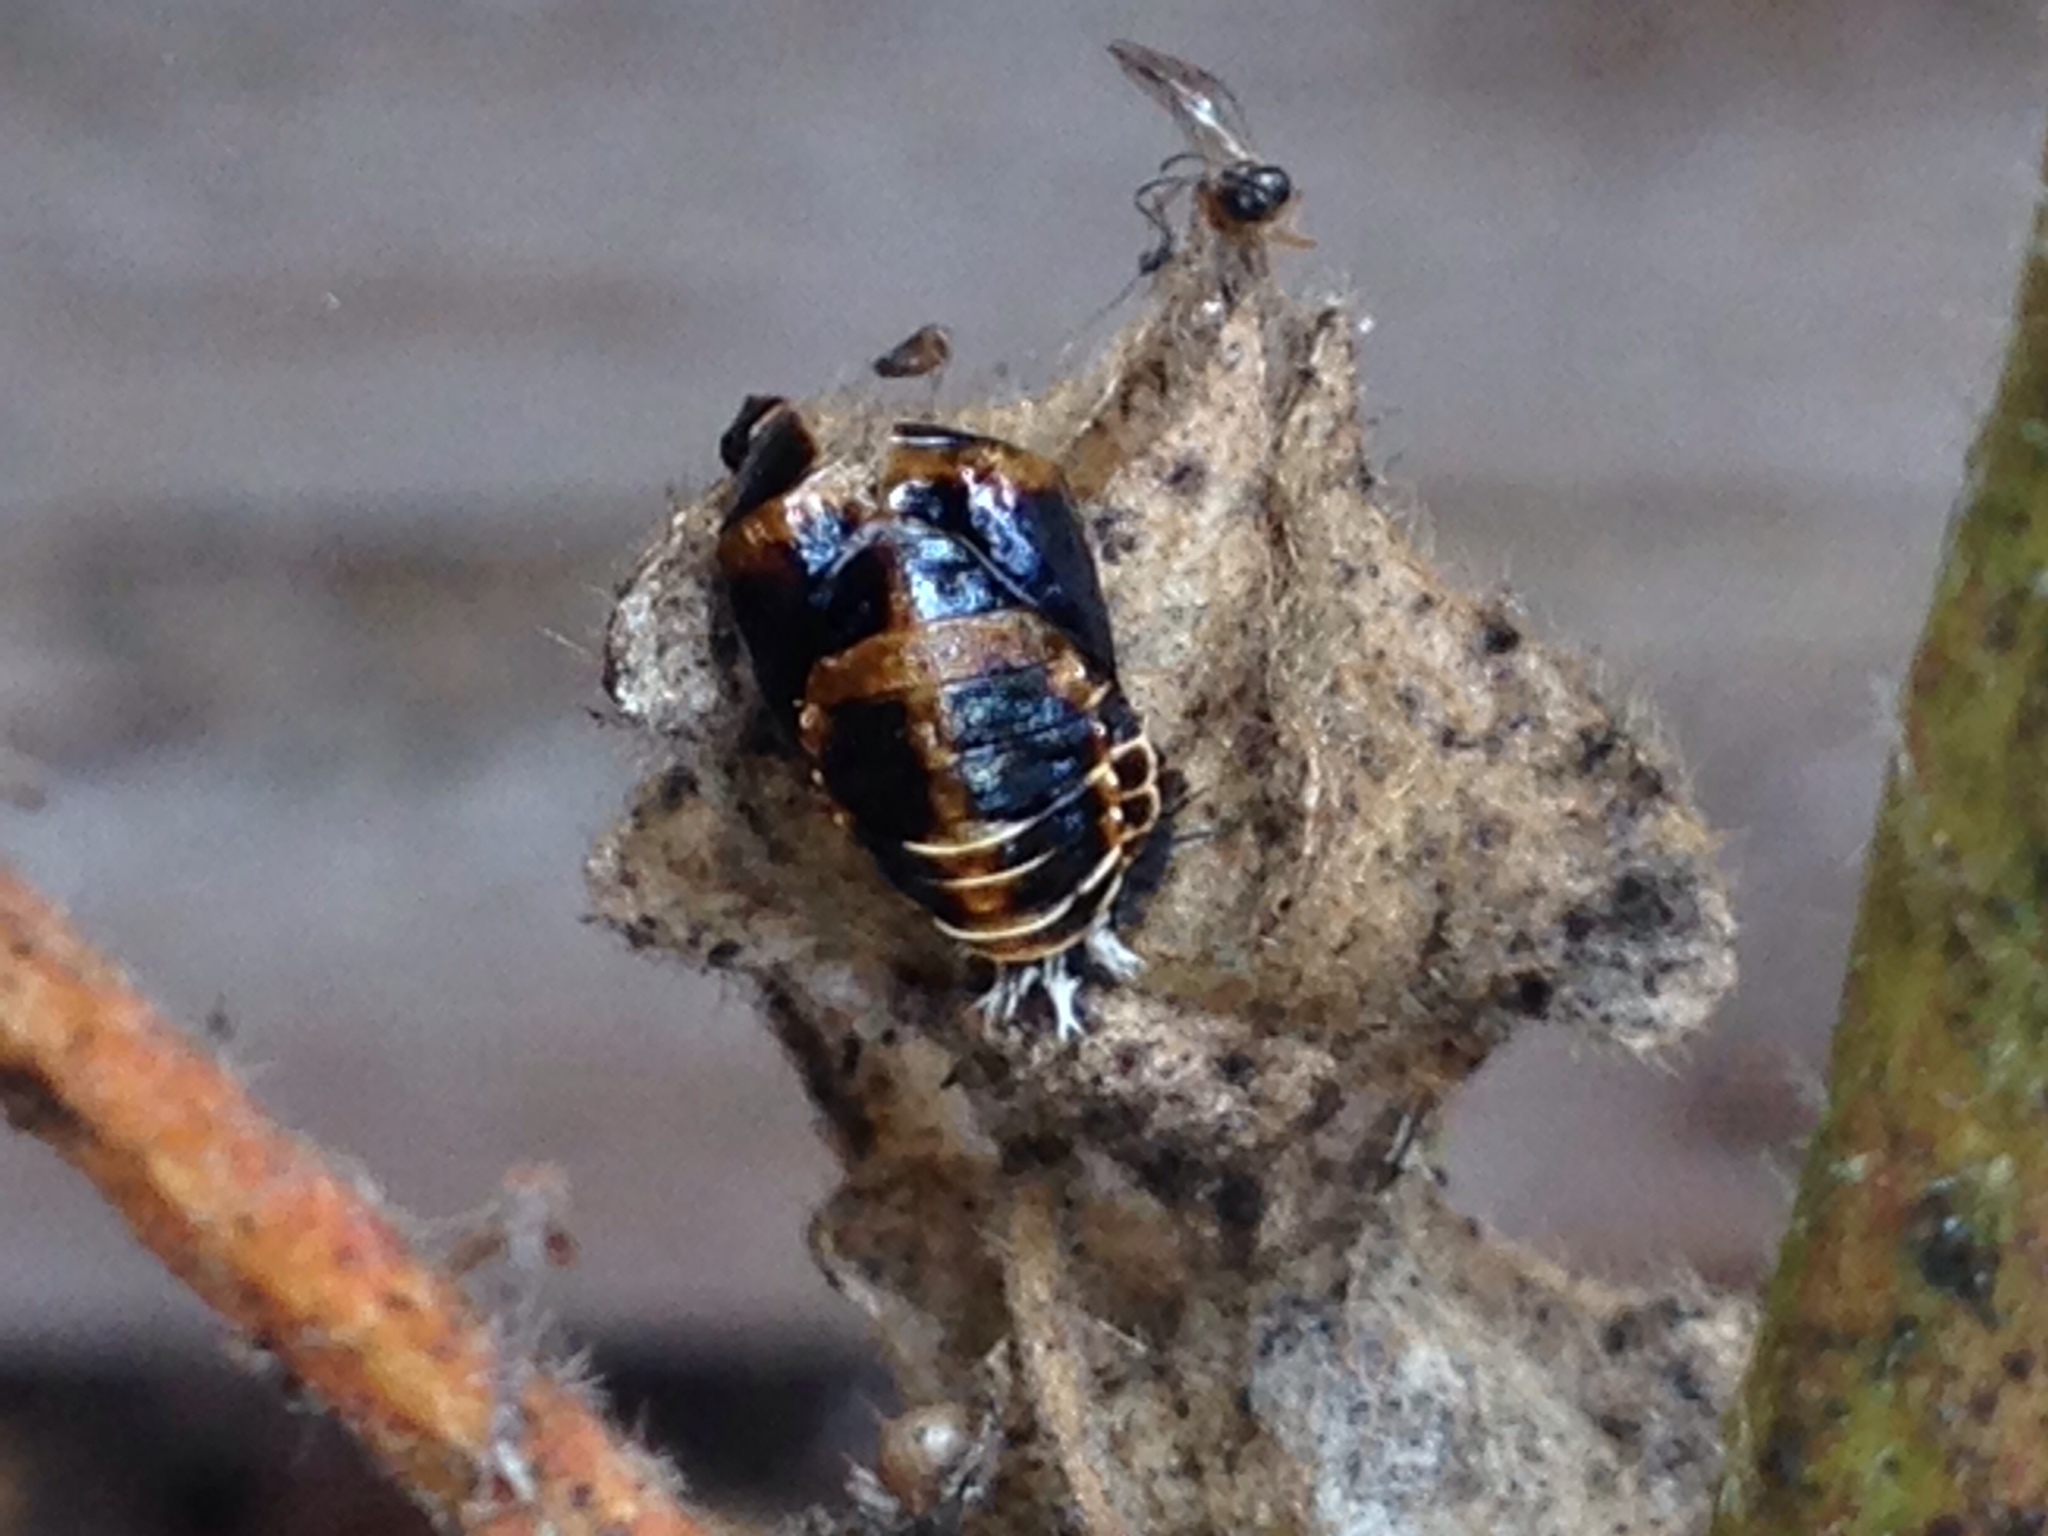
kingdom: Animalia
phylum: Arthropoda
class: Insecta
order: Coleoptera
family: Coccinellidae
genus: Harmonia
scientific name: Harmonia axyridis
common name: Harlequin ladybird
